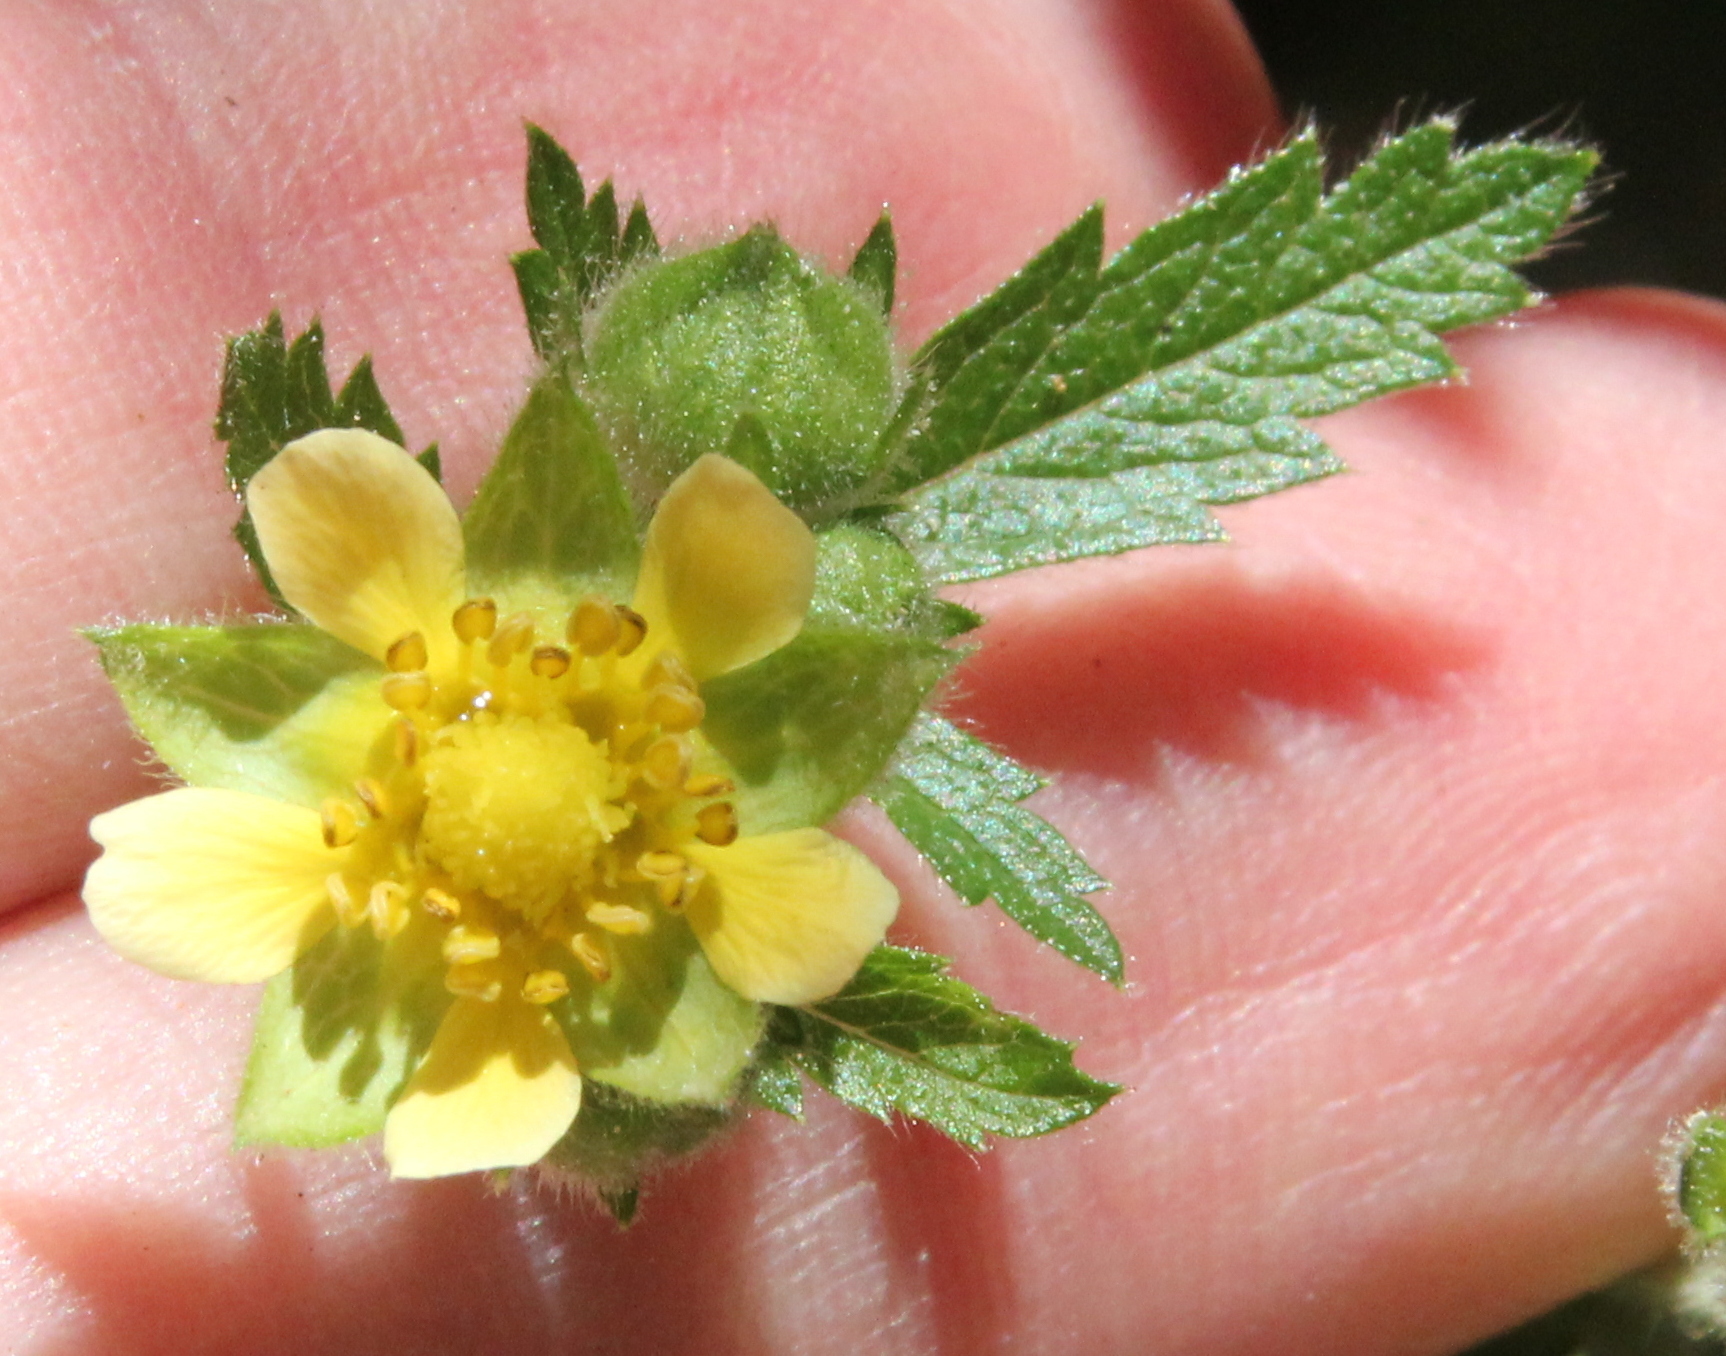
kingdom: Plantae
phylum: Tracheophyta
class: Magnoliopsida
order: Rosales
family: Rosaceae
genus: Drymocallis
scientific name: Drymocallis glandulosa
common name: Sticky cinquefoil
